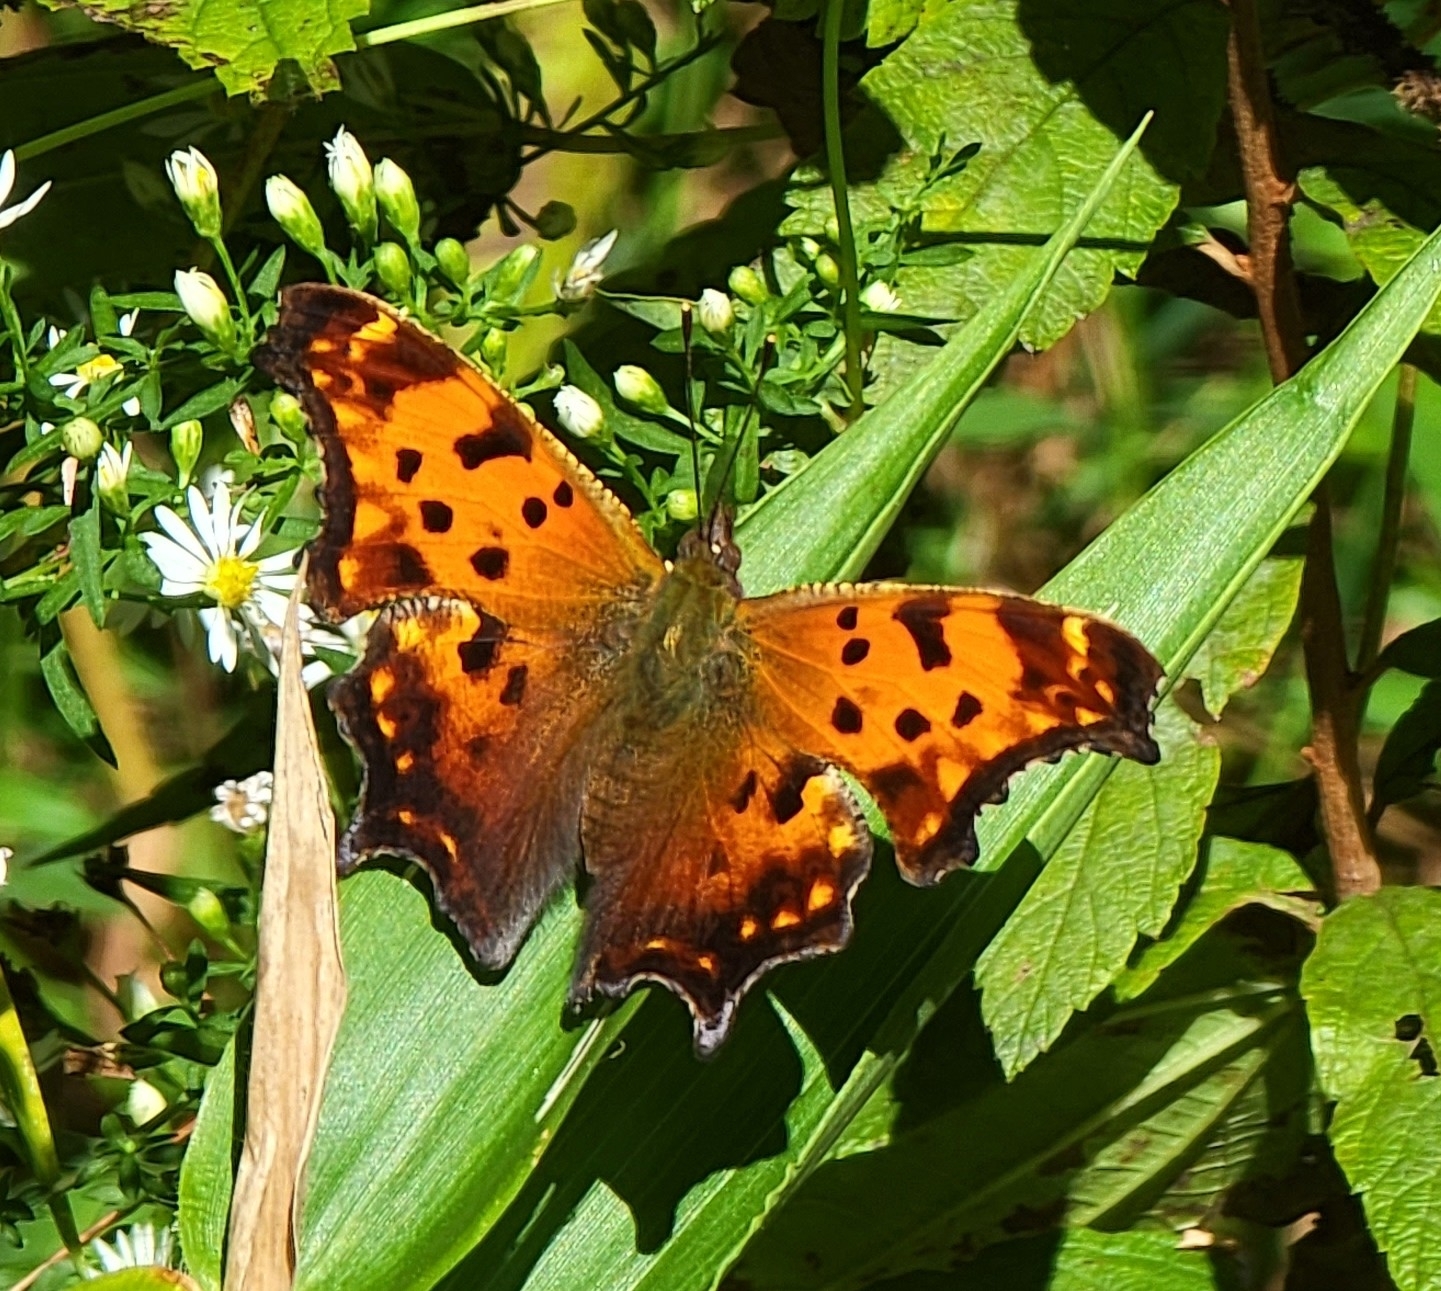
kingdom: Animalia
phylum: Arthropoda
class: Insecta
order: Lepidoptera
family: Nymphalidae
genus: Polygonia
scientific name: Polygonia comma
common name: Eastern comma
